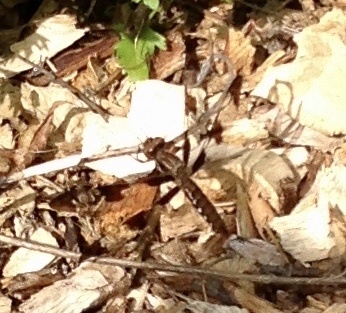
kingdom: Animalia
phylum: Arthropoda
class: Insecta
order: Odonata
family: Libellulidae
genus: Plathemis
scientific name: Plathemis lydia
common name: Common whitetail
